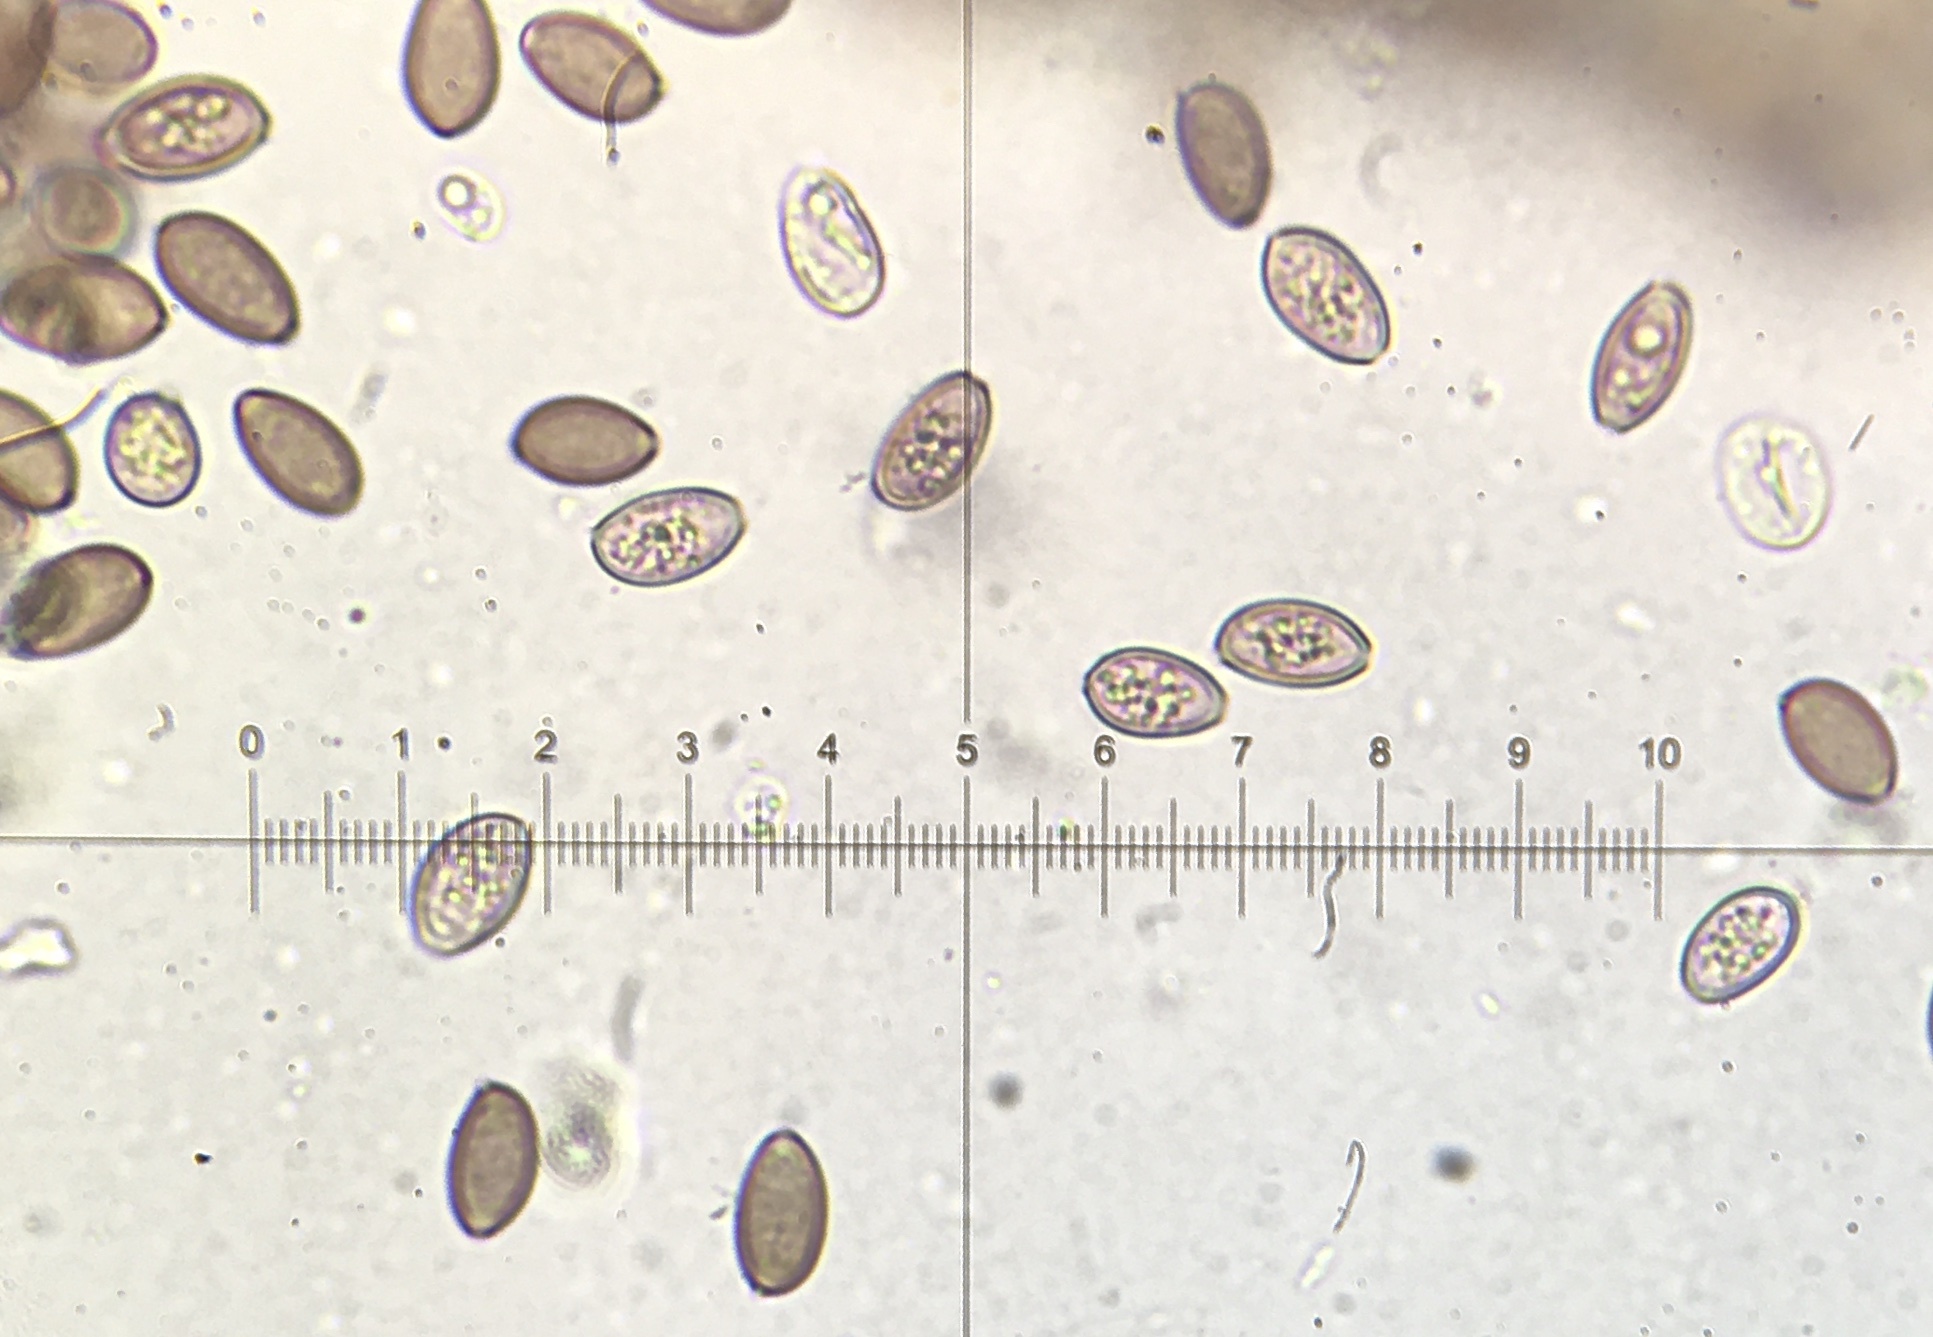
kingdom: Fungi
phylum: Basidiomycota
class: Agaricomycetes
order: Agaricales
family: Hymenogastraceae
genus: Psilocybe
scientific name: Psilocybe cyanescens
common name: Blueleg brownie
